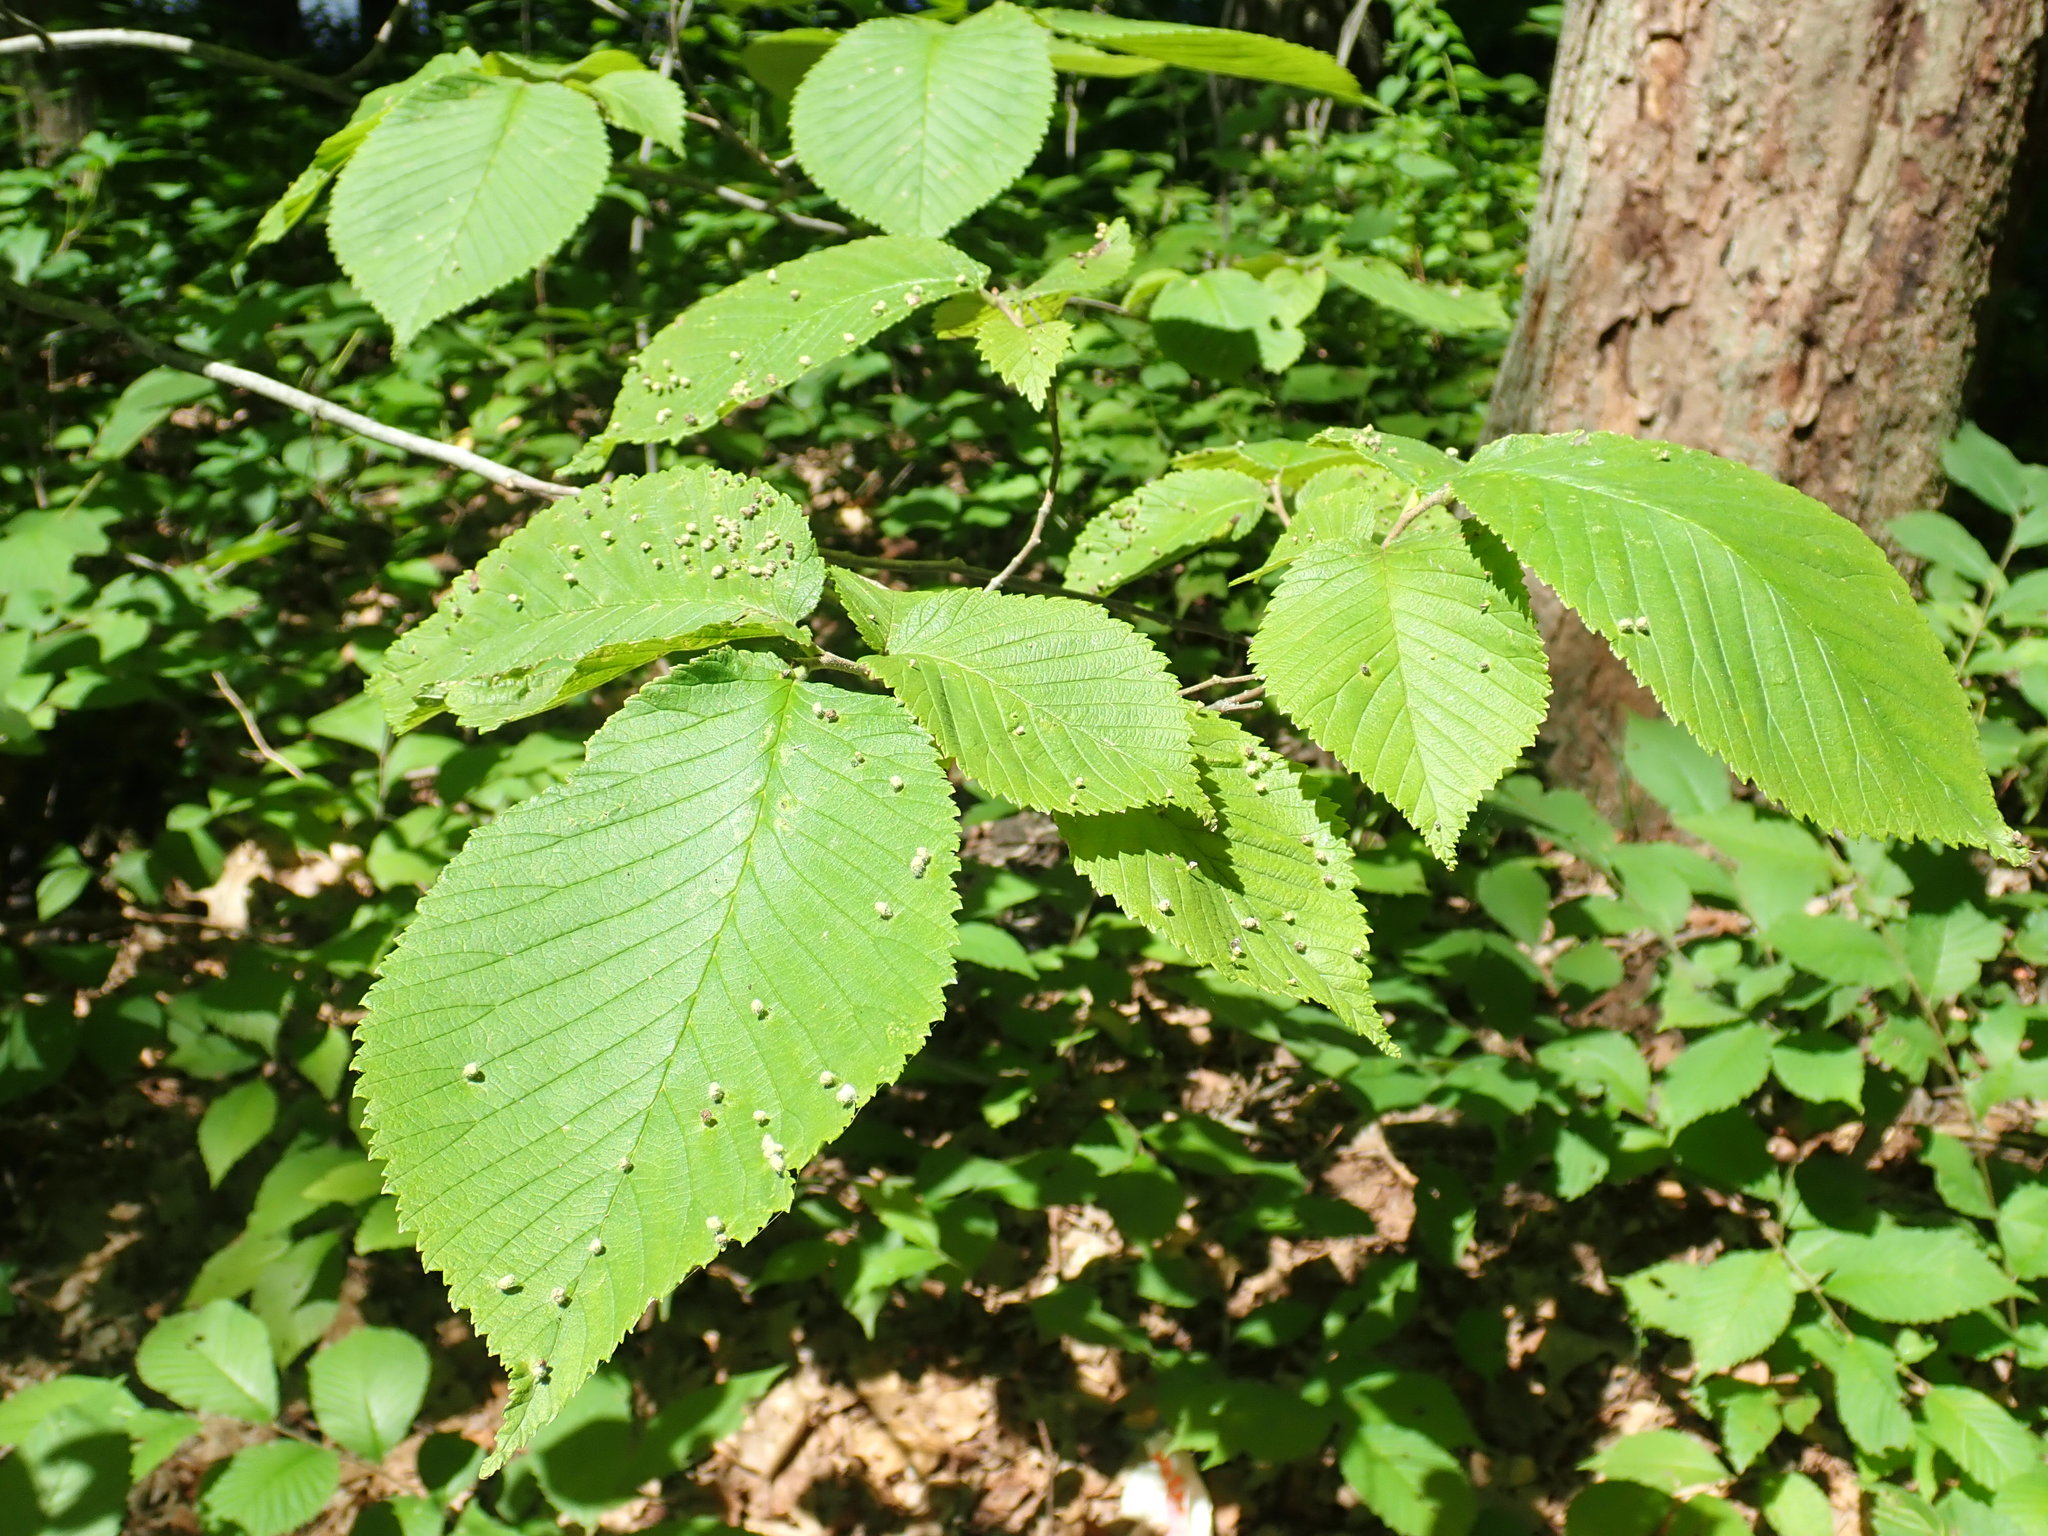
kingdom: Animalia
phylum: Arthropoda
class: Arachnida
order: Trombidiformes
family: Eriophyidae
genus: Aceria
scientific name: Aceria
